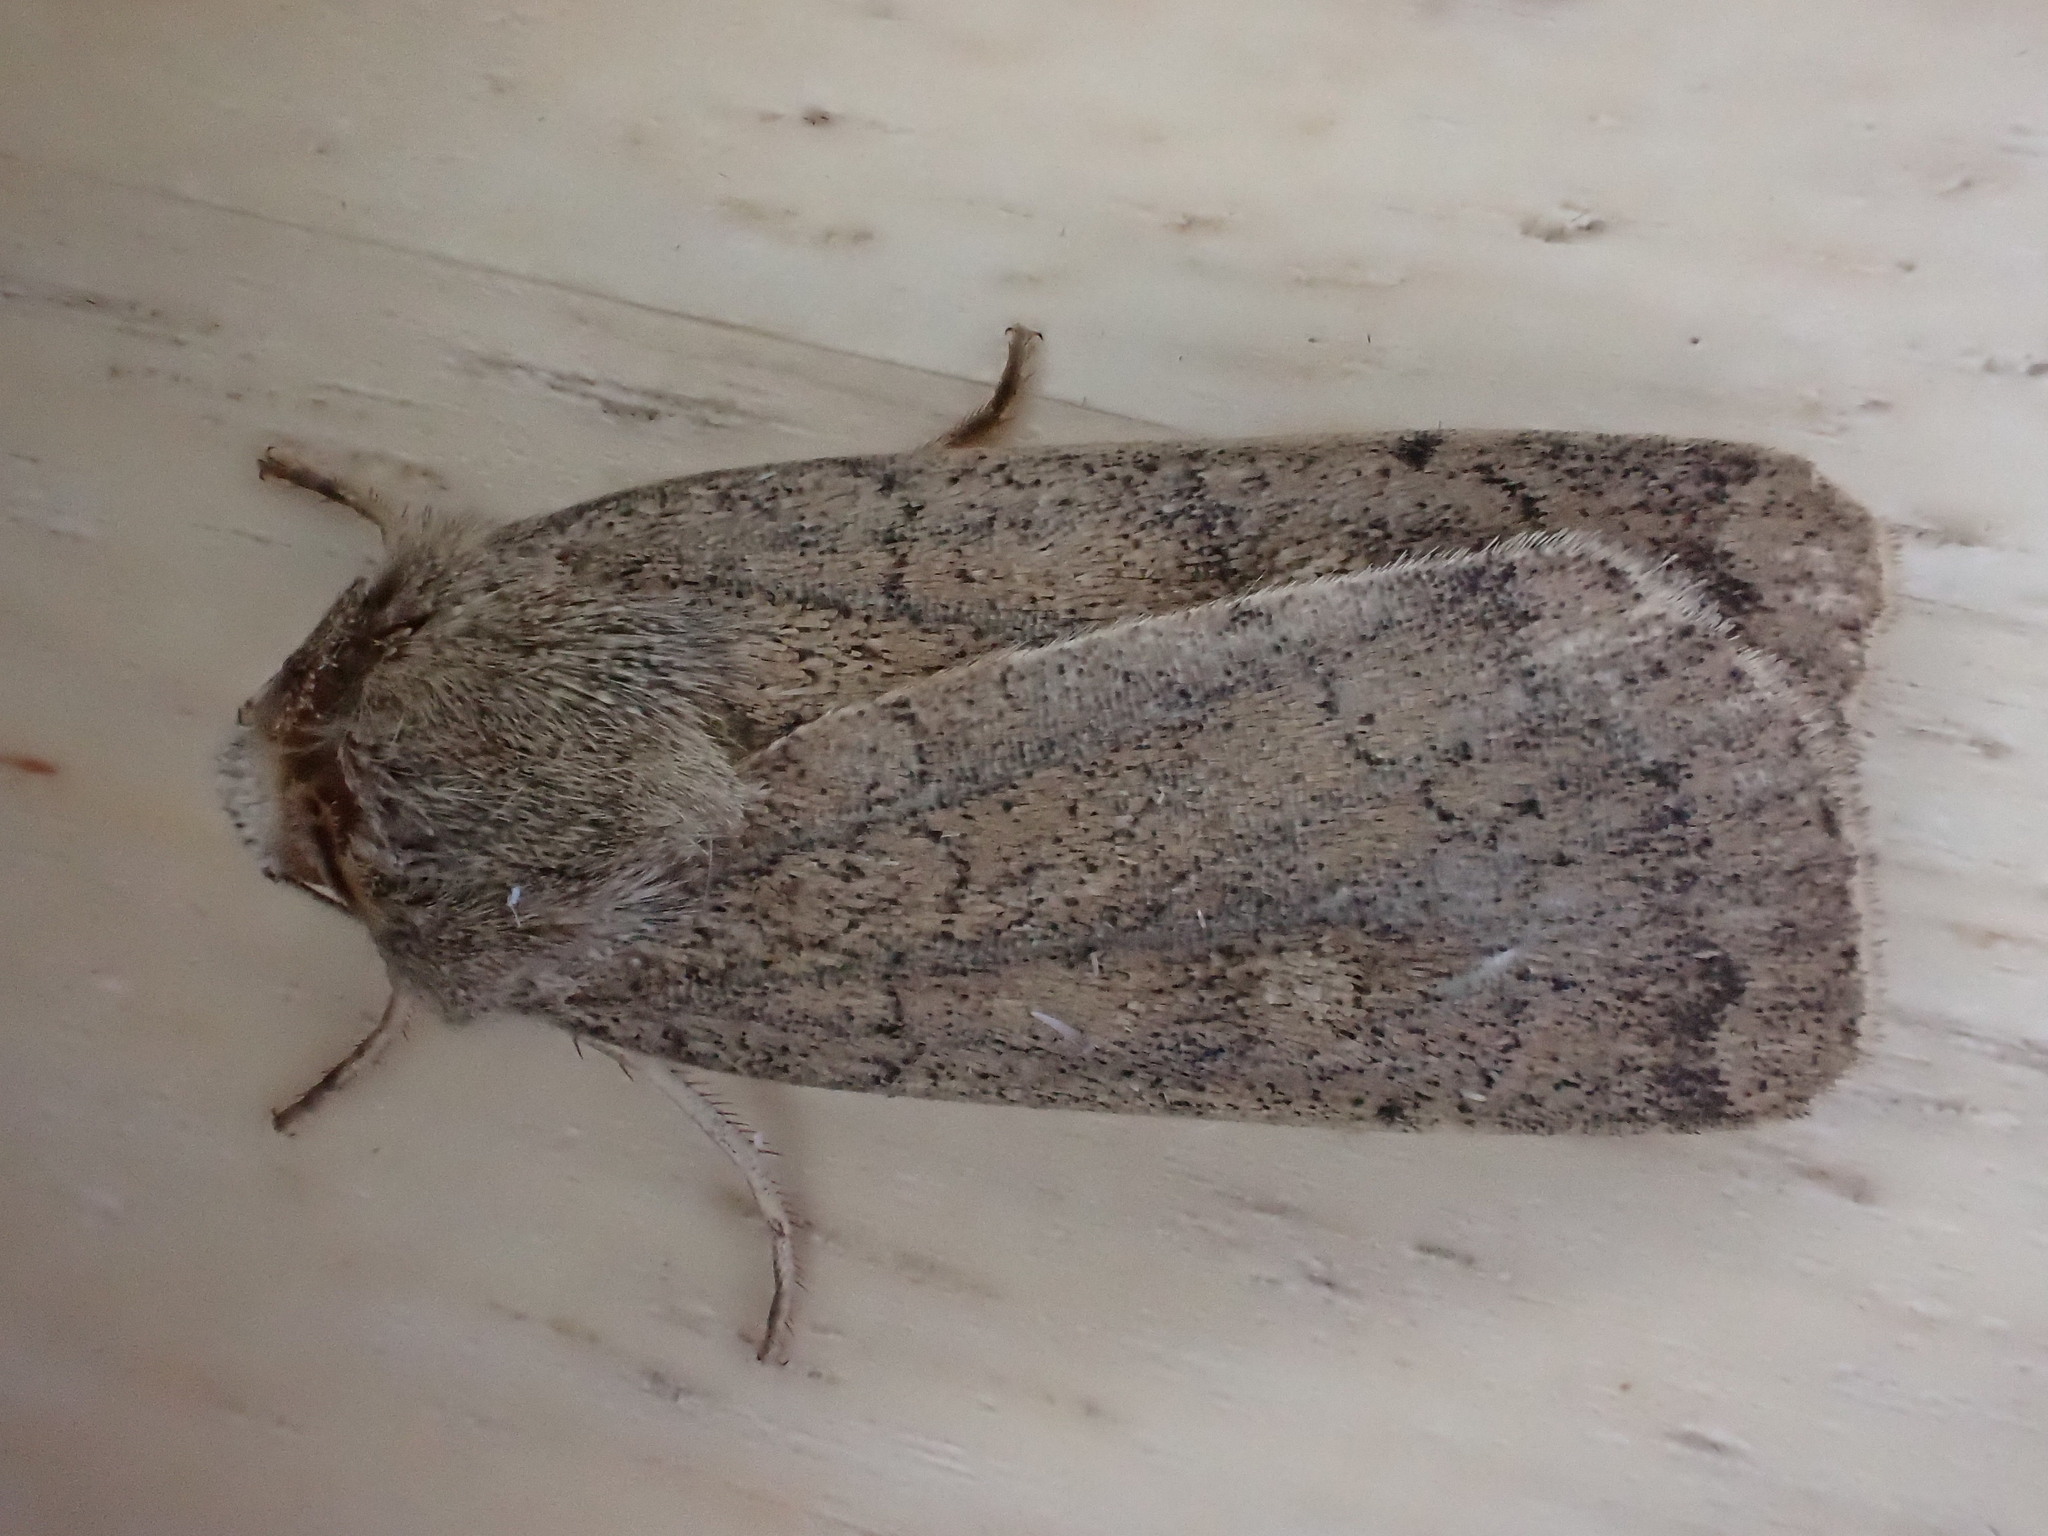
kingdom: Animalia
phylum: Arthropoda
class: Insecta
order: Lepidoptera
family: Noctuidae
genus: Xestia
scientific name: Xestia xanthographa
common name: Square-spot rustic
